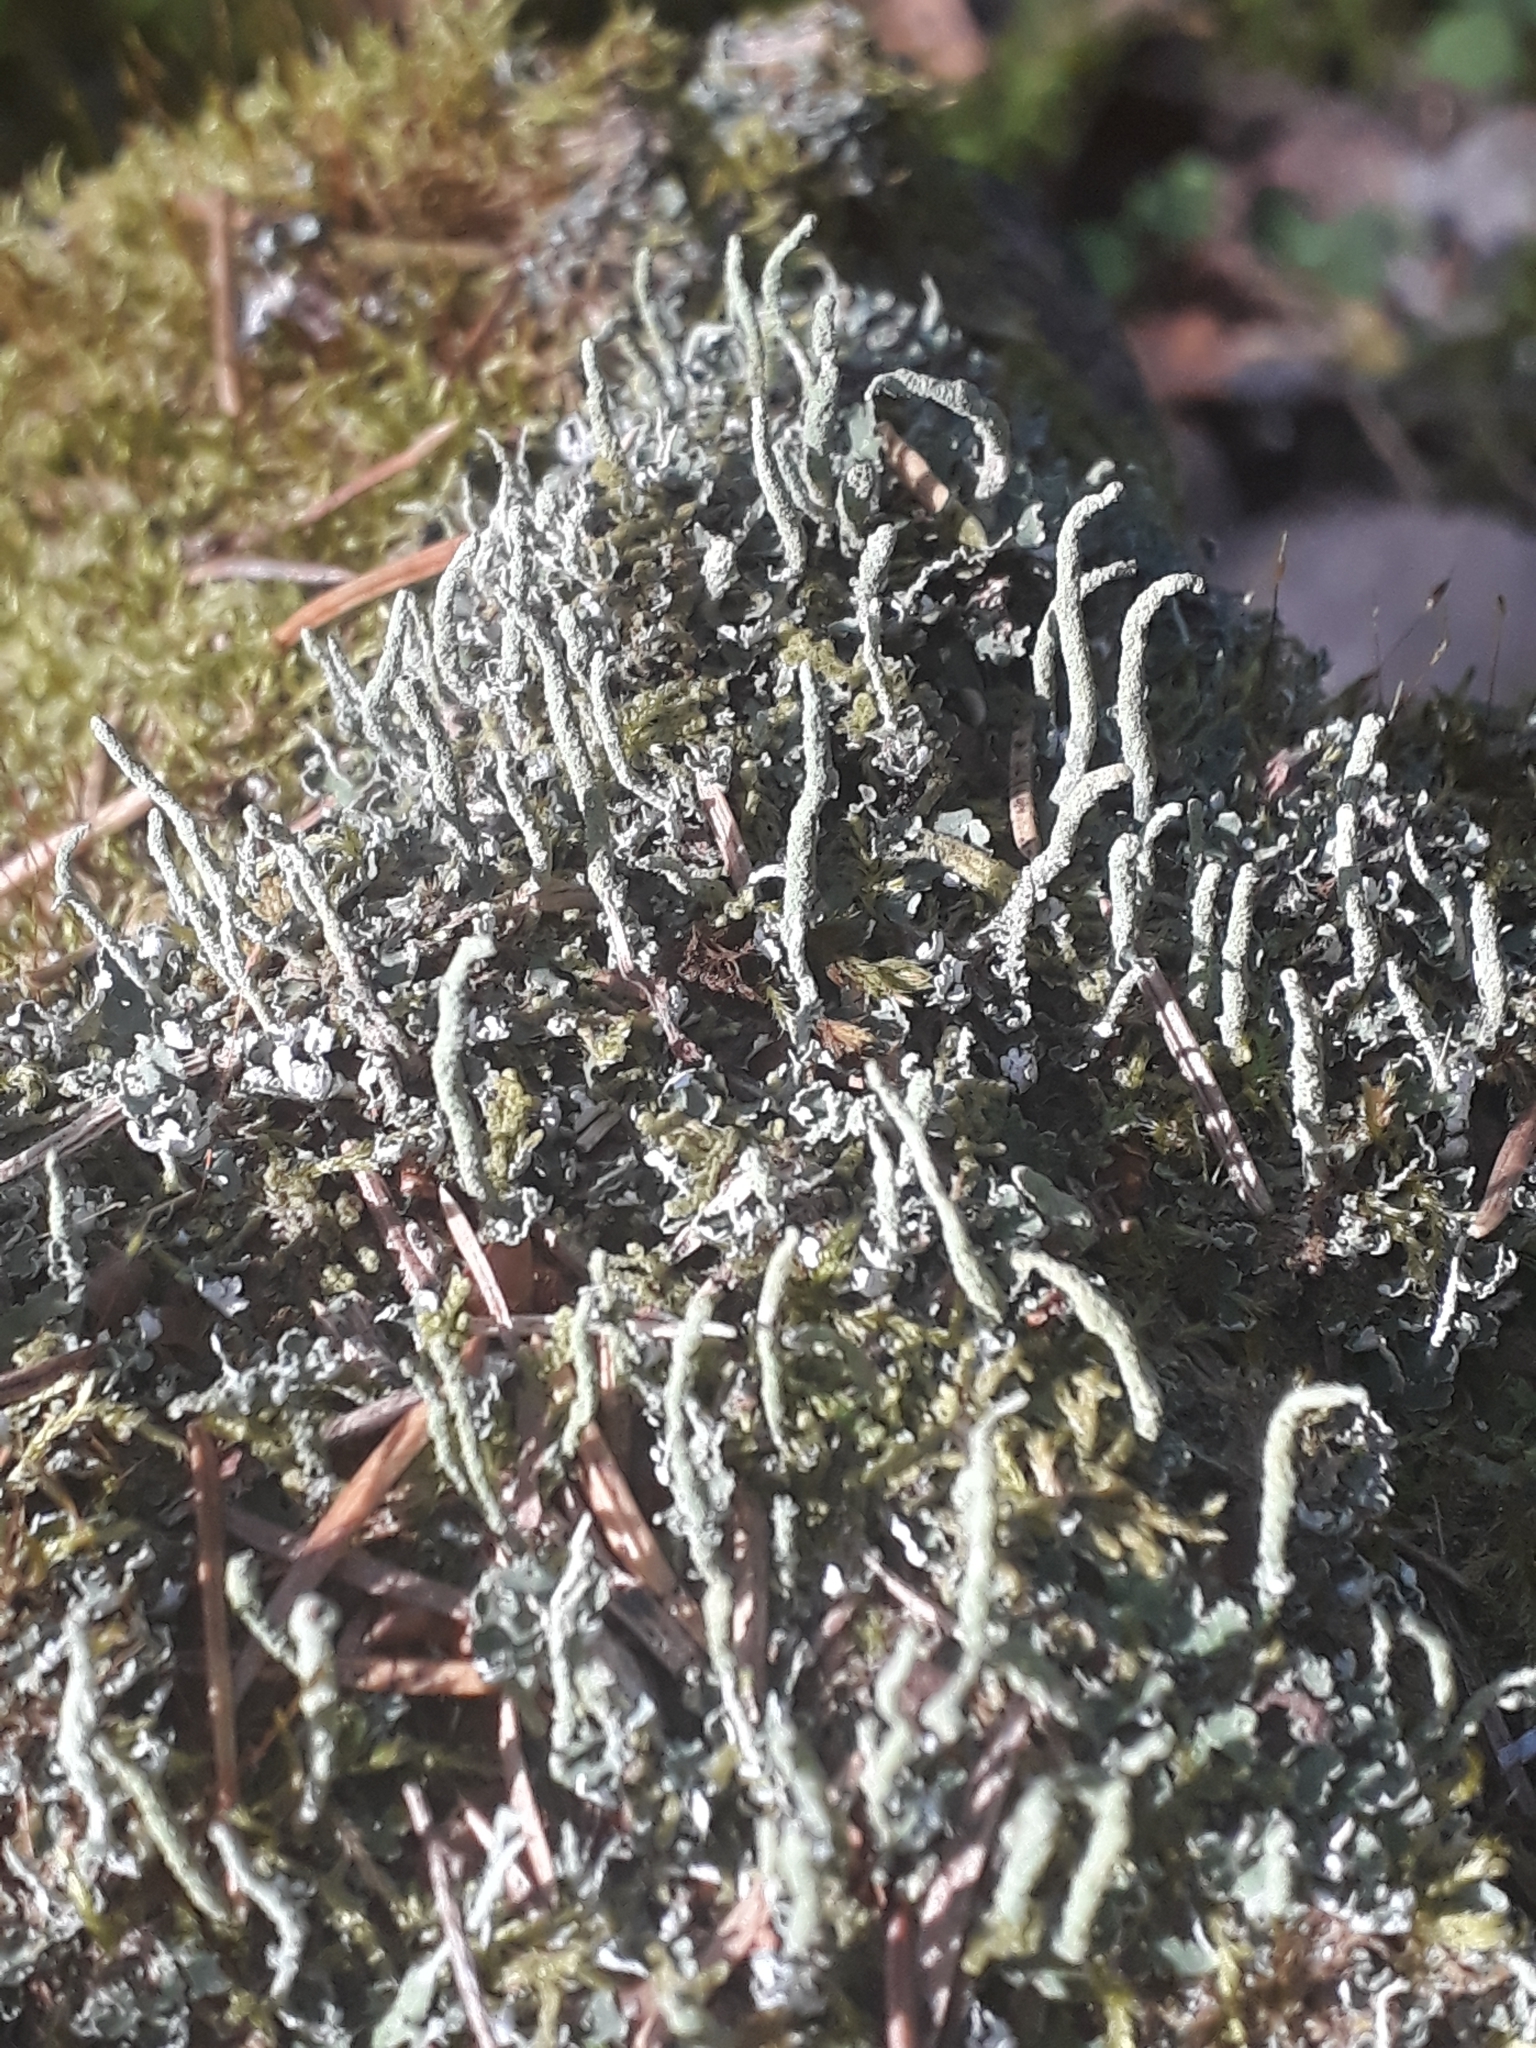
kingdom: Fungi
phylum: Ascomycota
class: Lecanoromycetes
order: Lecanorales
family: Cladoniaceae
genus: Cladonia
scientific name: Cladonia coniocraea
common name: Common powderhorn
